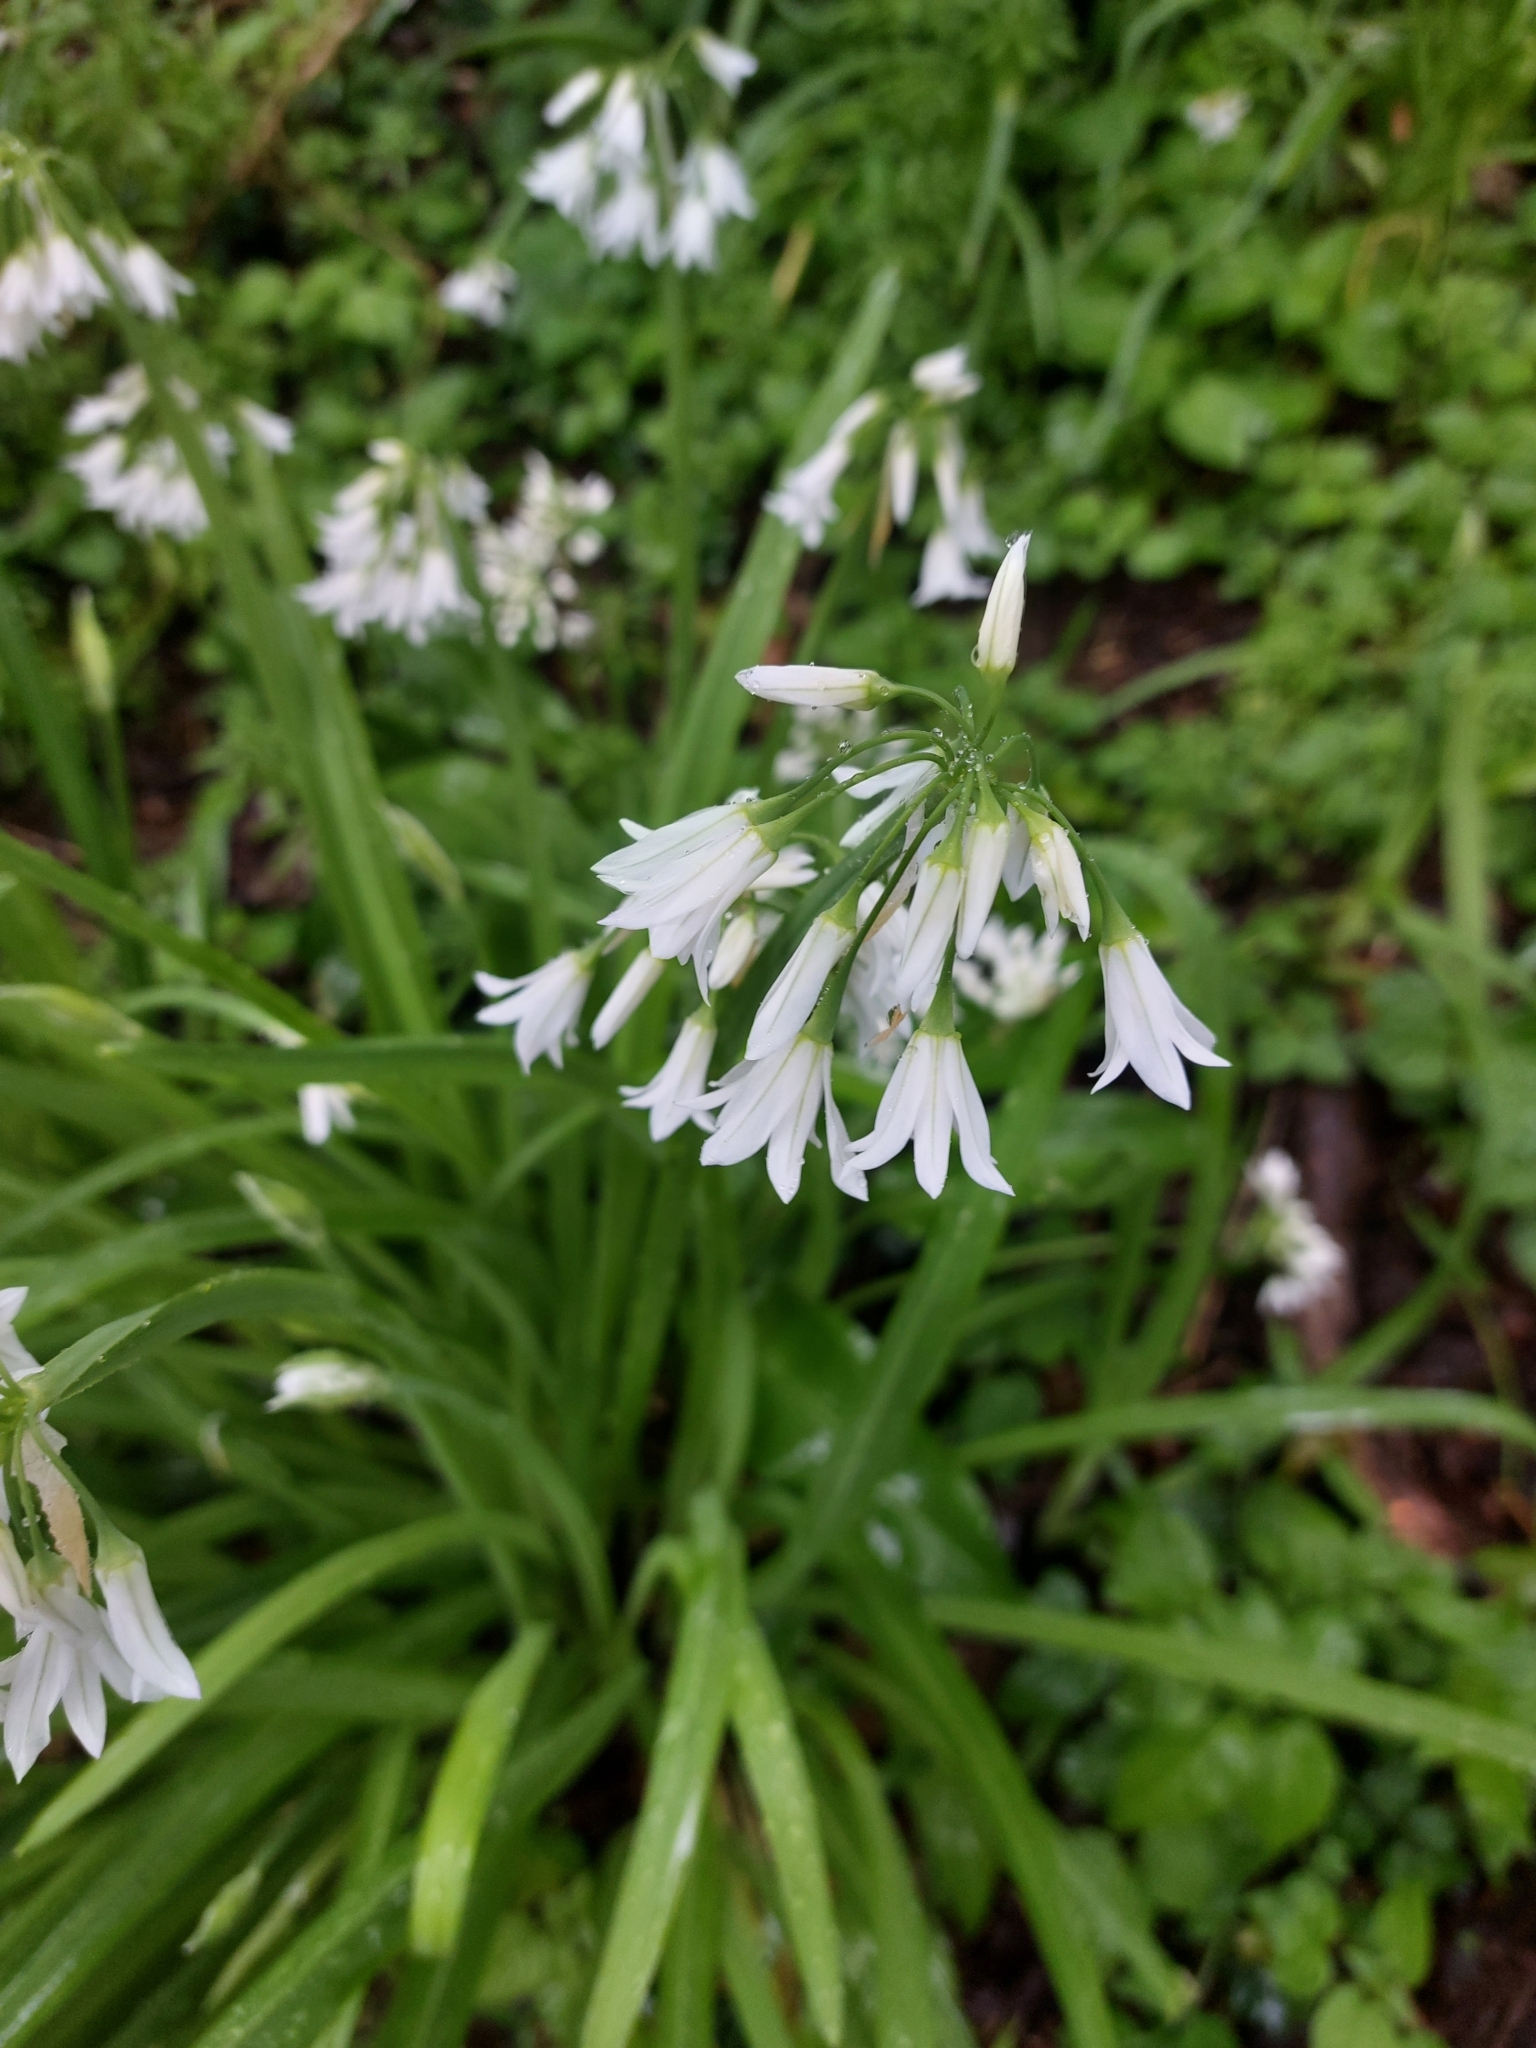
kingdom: Plantae
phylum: Tracheophyta
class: Liliopsida
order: Asparagales
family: Amaryllidaceae
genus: Allium
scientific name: Allium triquetrum
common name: Three-cornered garlic
